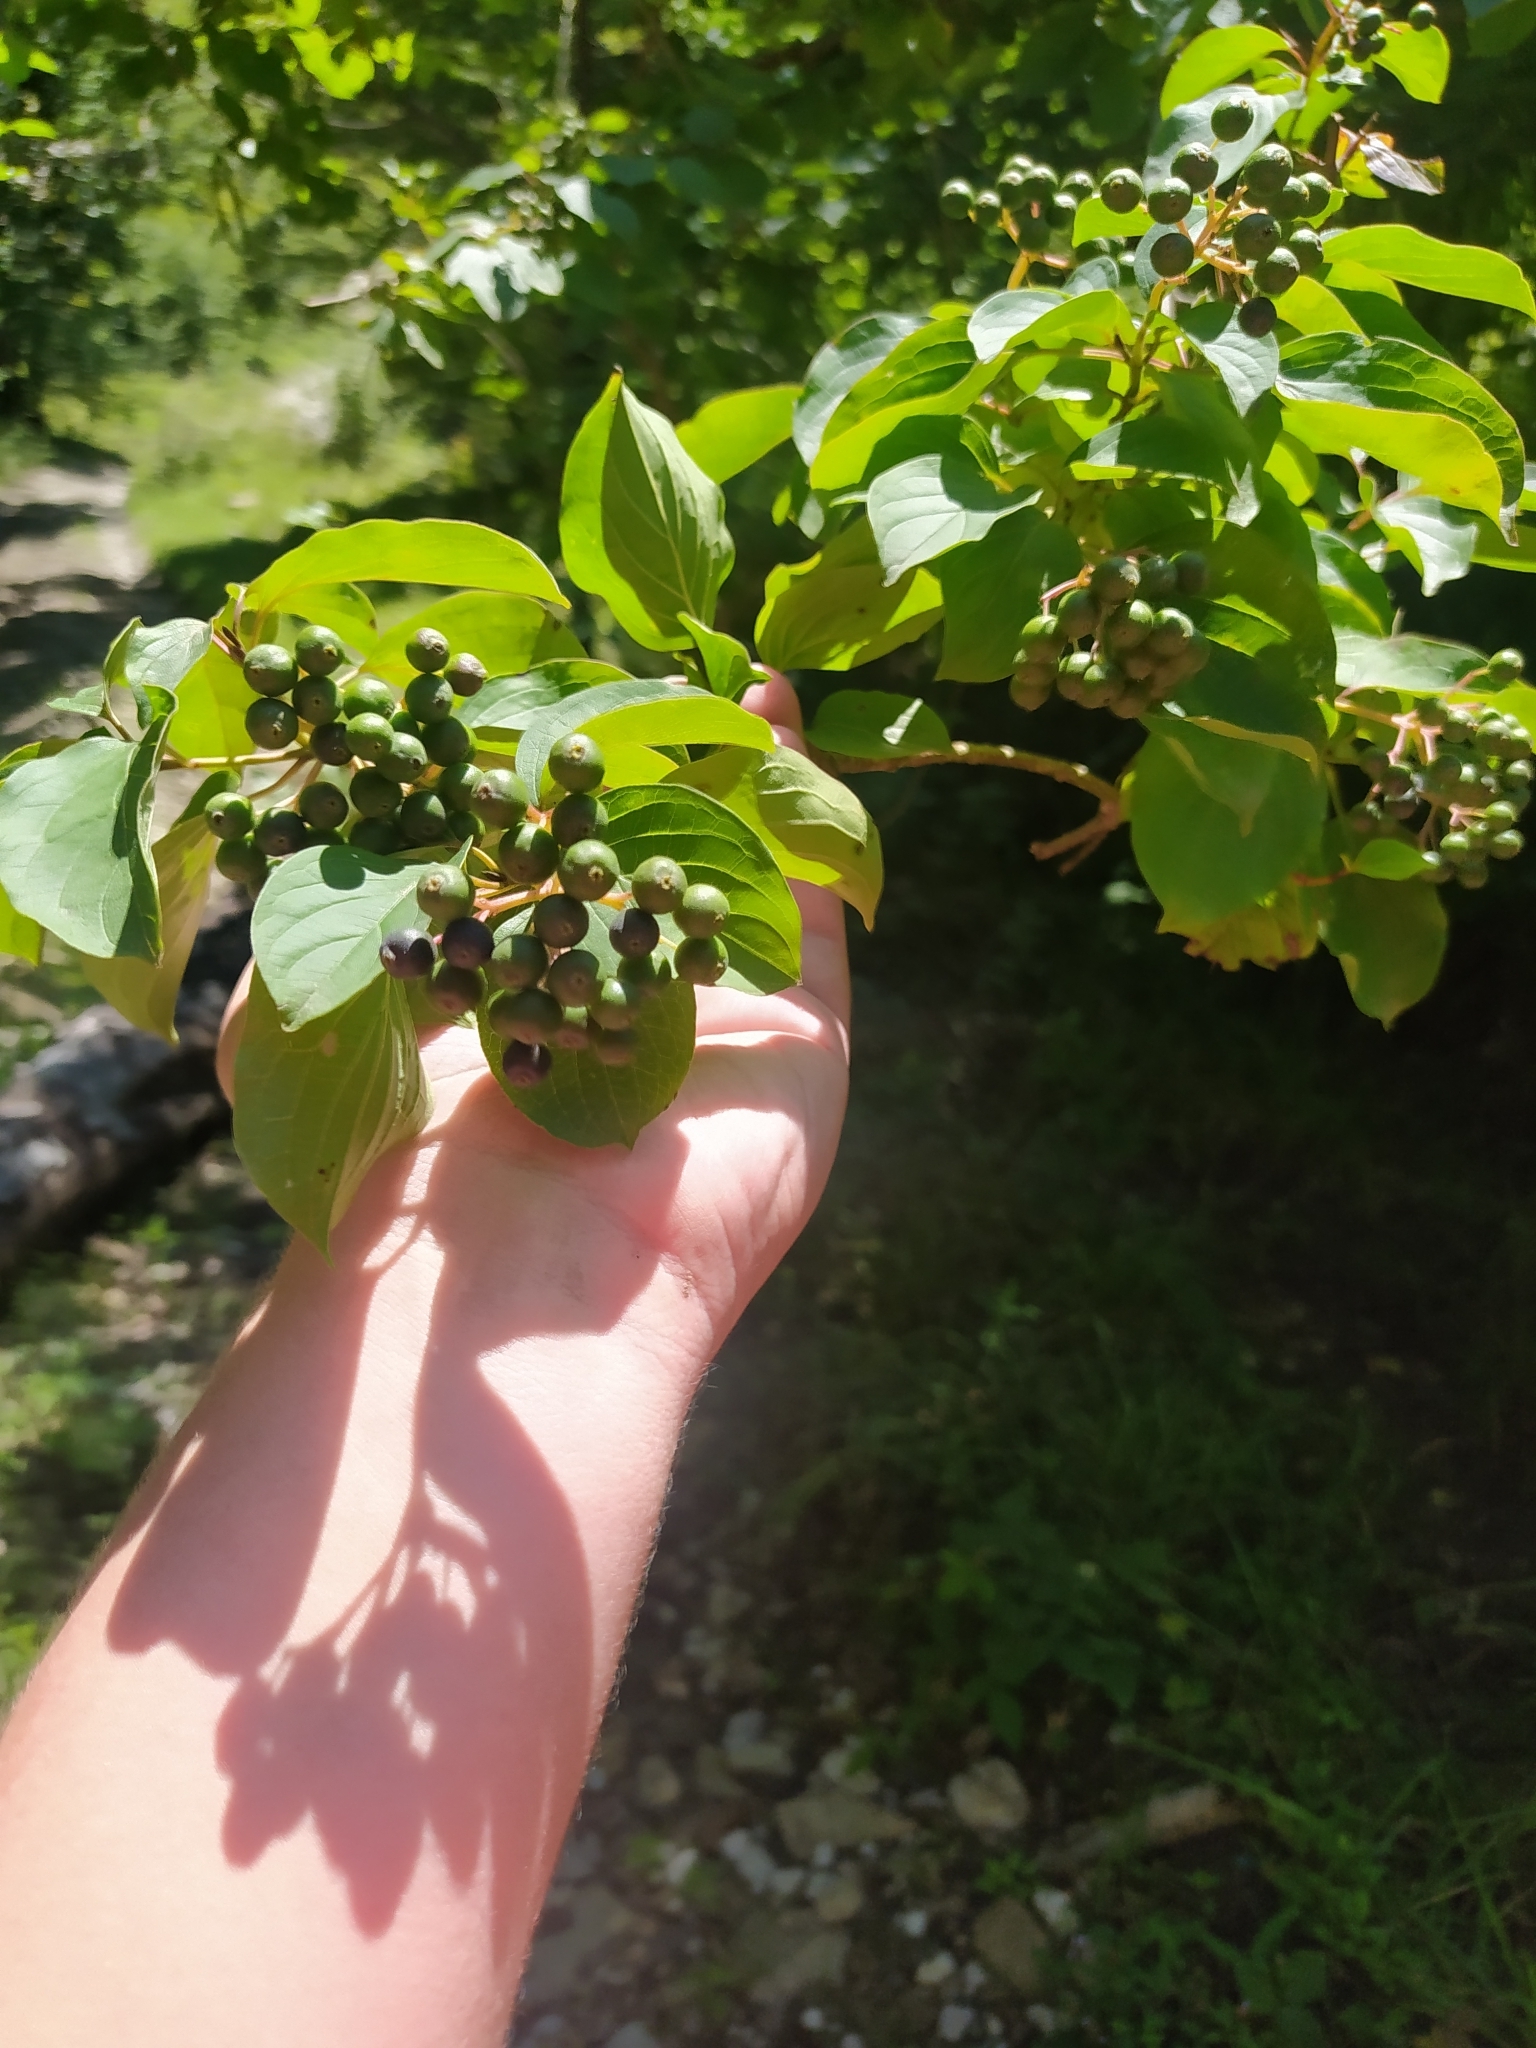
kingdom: Plantae
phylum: Tracheophyta
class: Magnoliopsida
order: Cornales
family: Cornaceae
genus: Cornus
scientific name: Cornus sanguinea
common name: Dogwood
